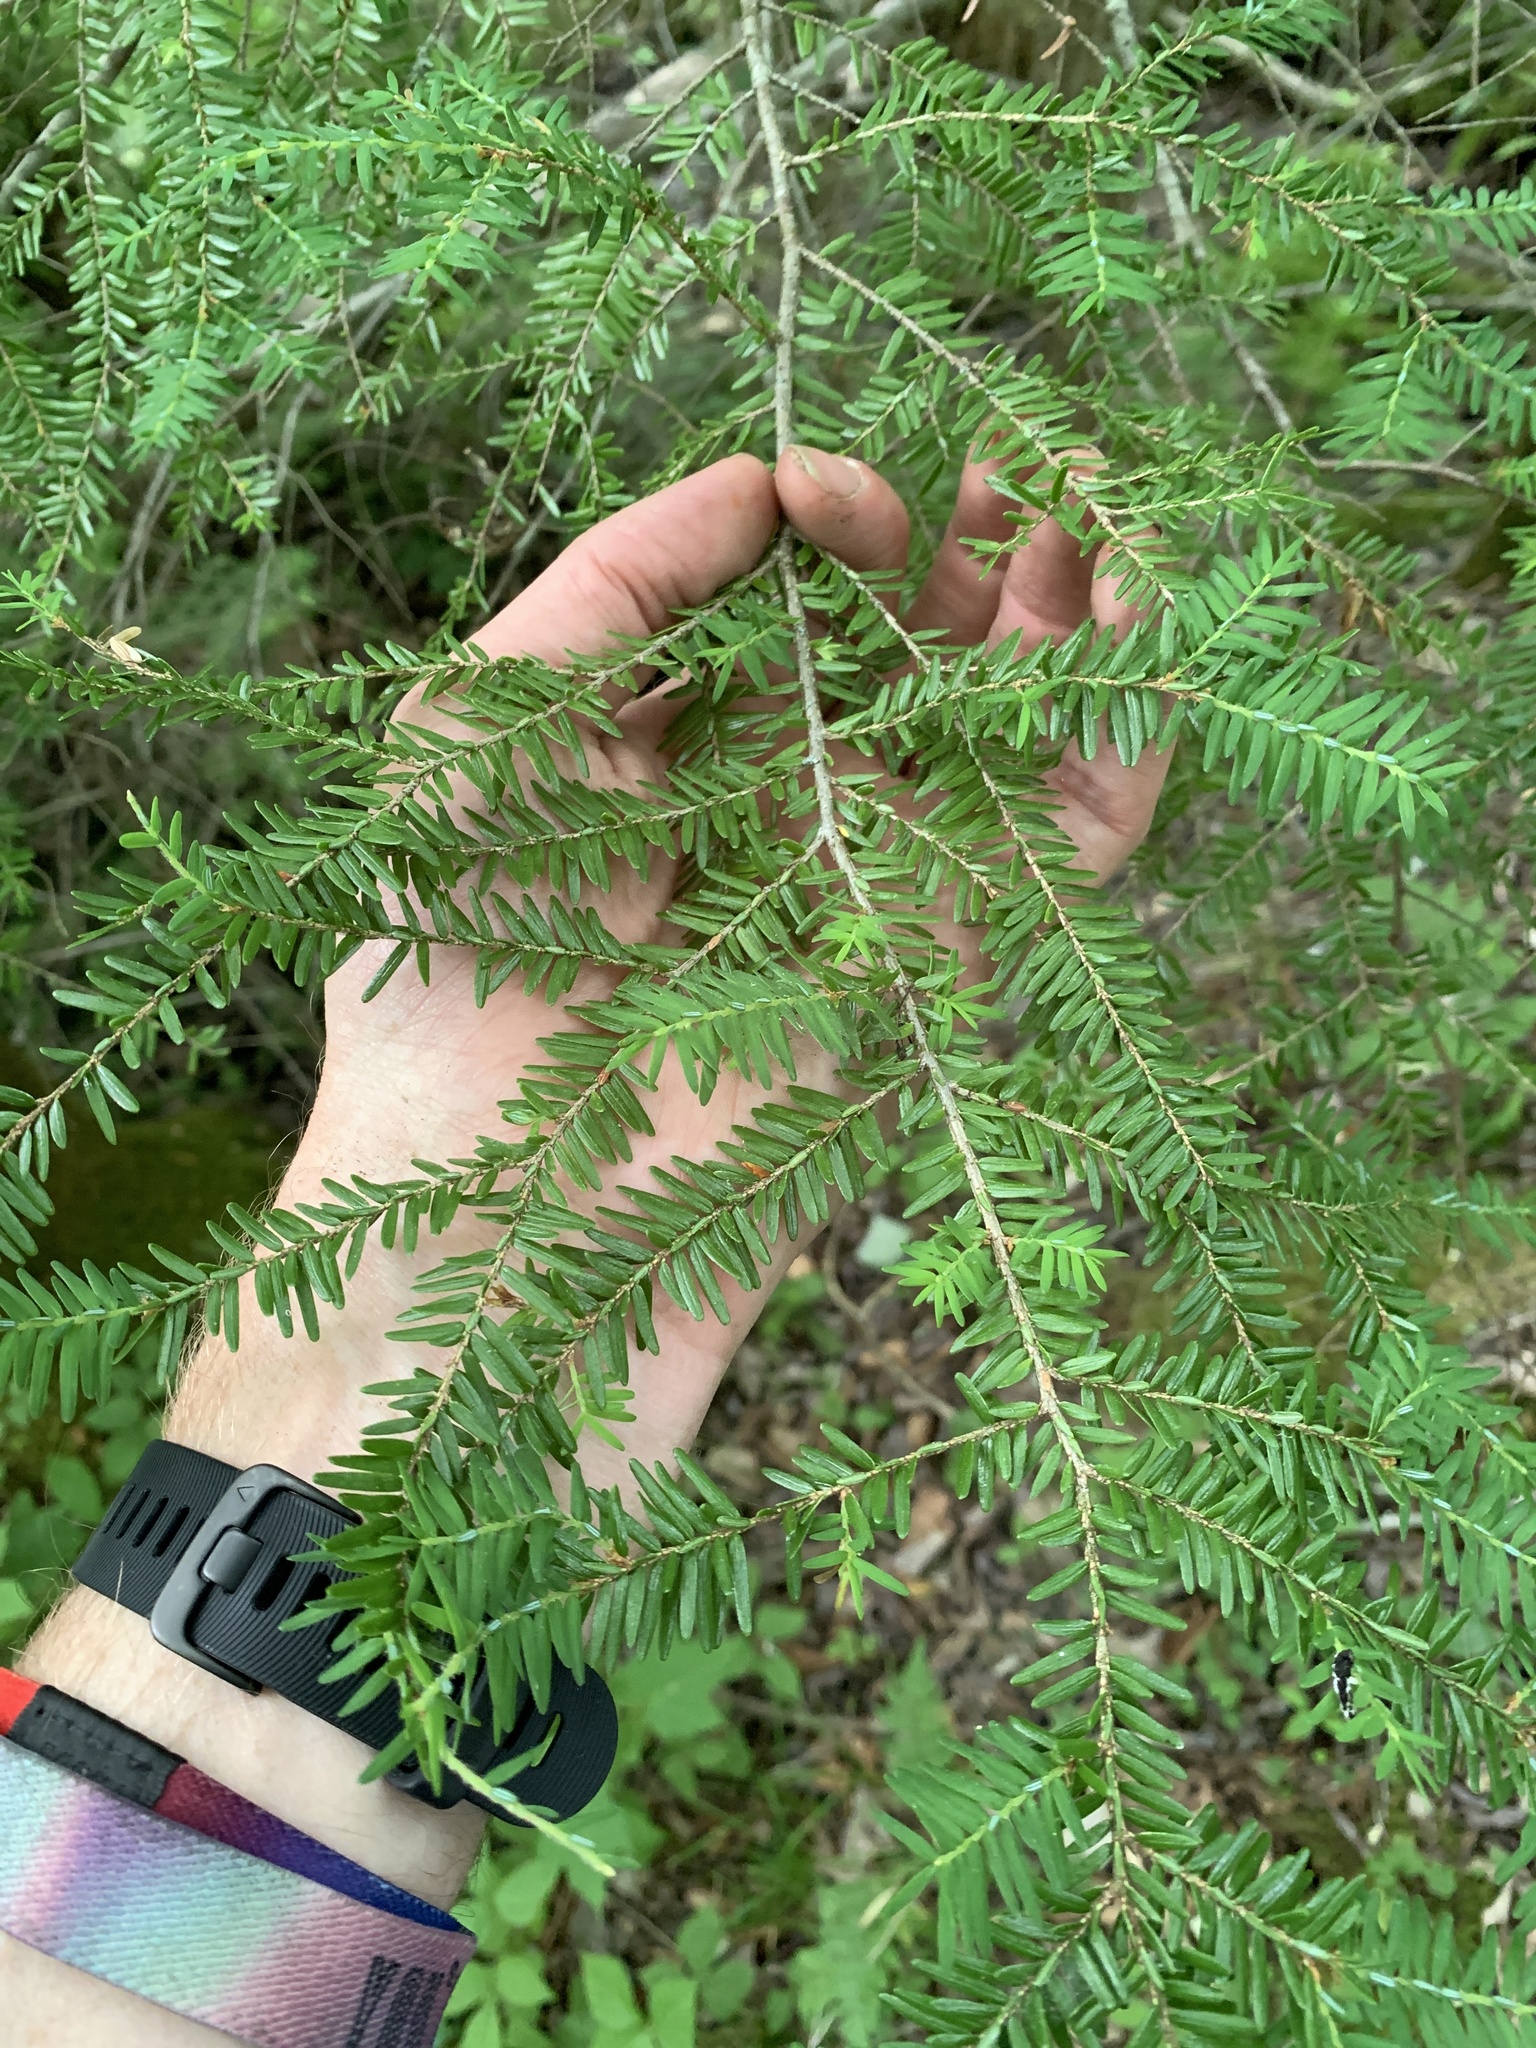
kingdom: Plantae
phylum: Tracheophyta
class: Pinopsida
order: Pinales
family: Pinaceae
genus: Tsuga
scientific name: Tsuga canadensis
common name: Eastern hemlock
